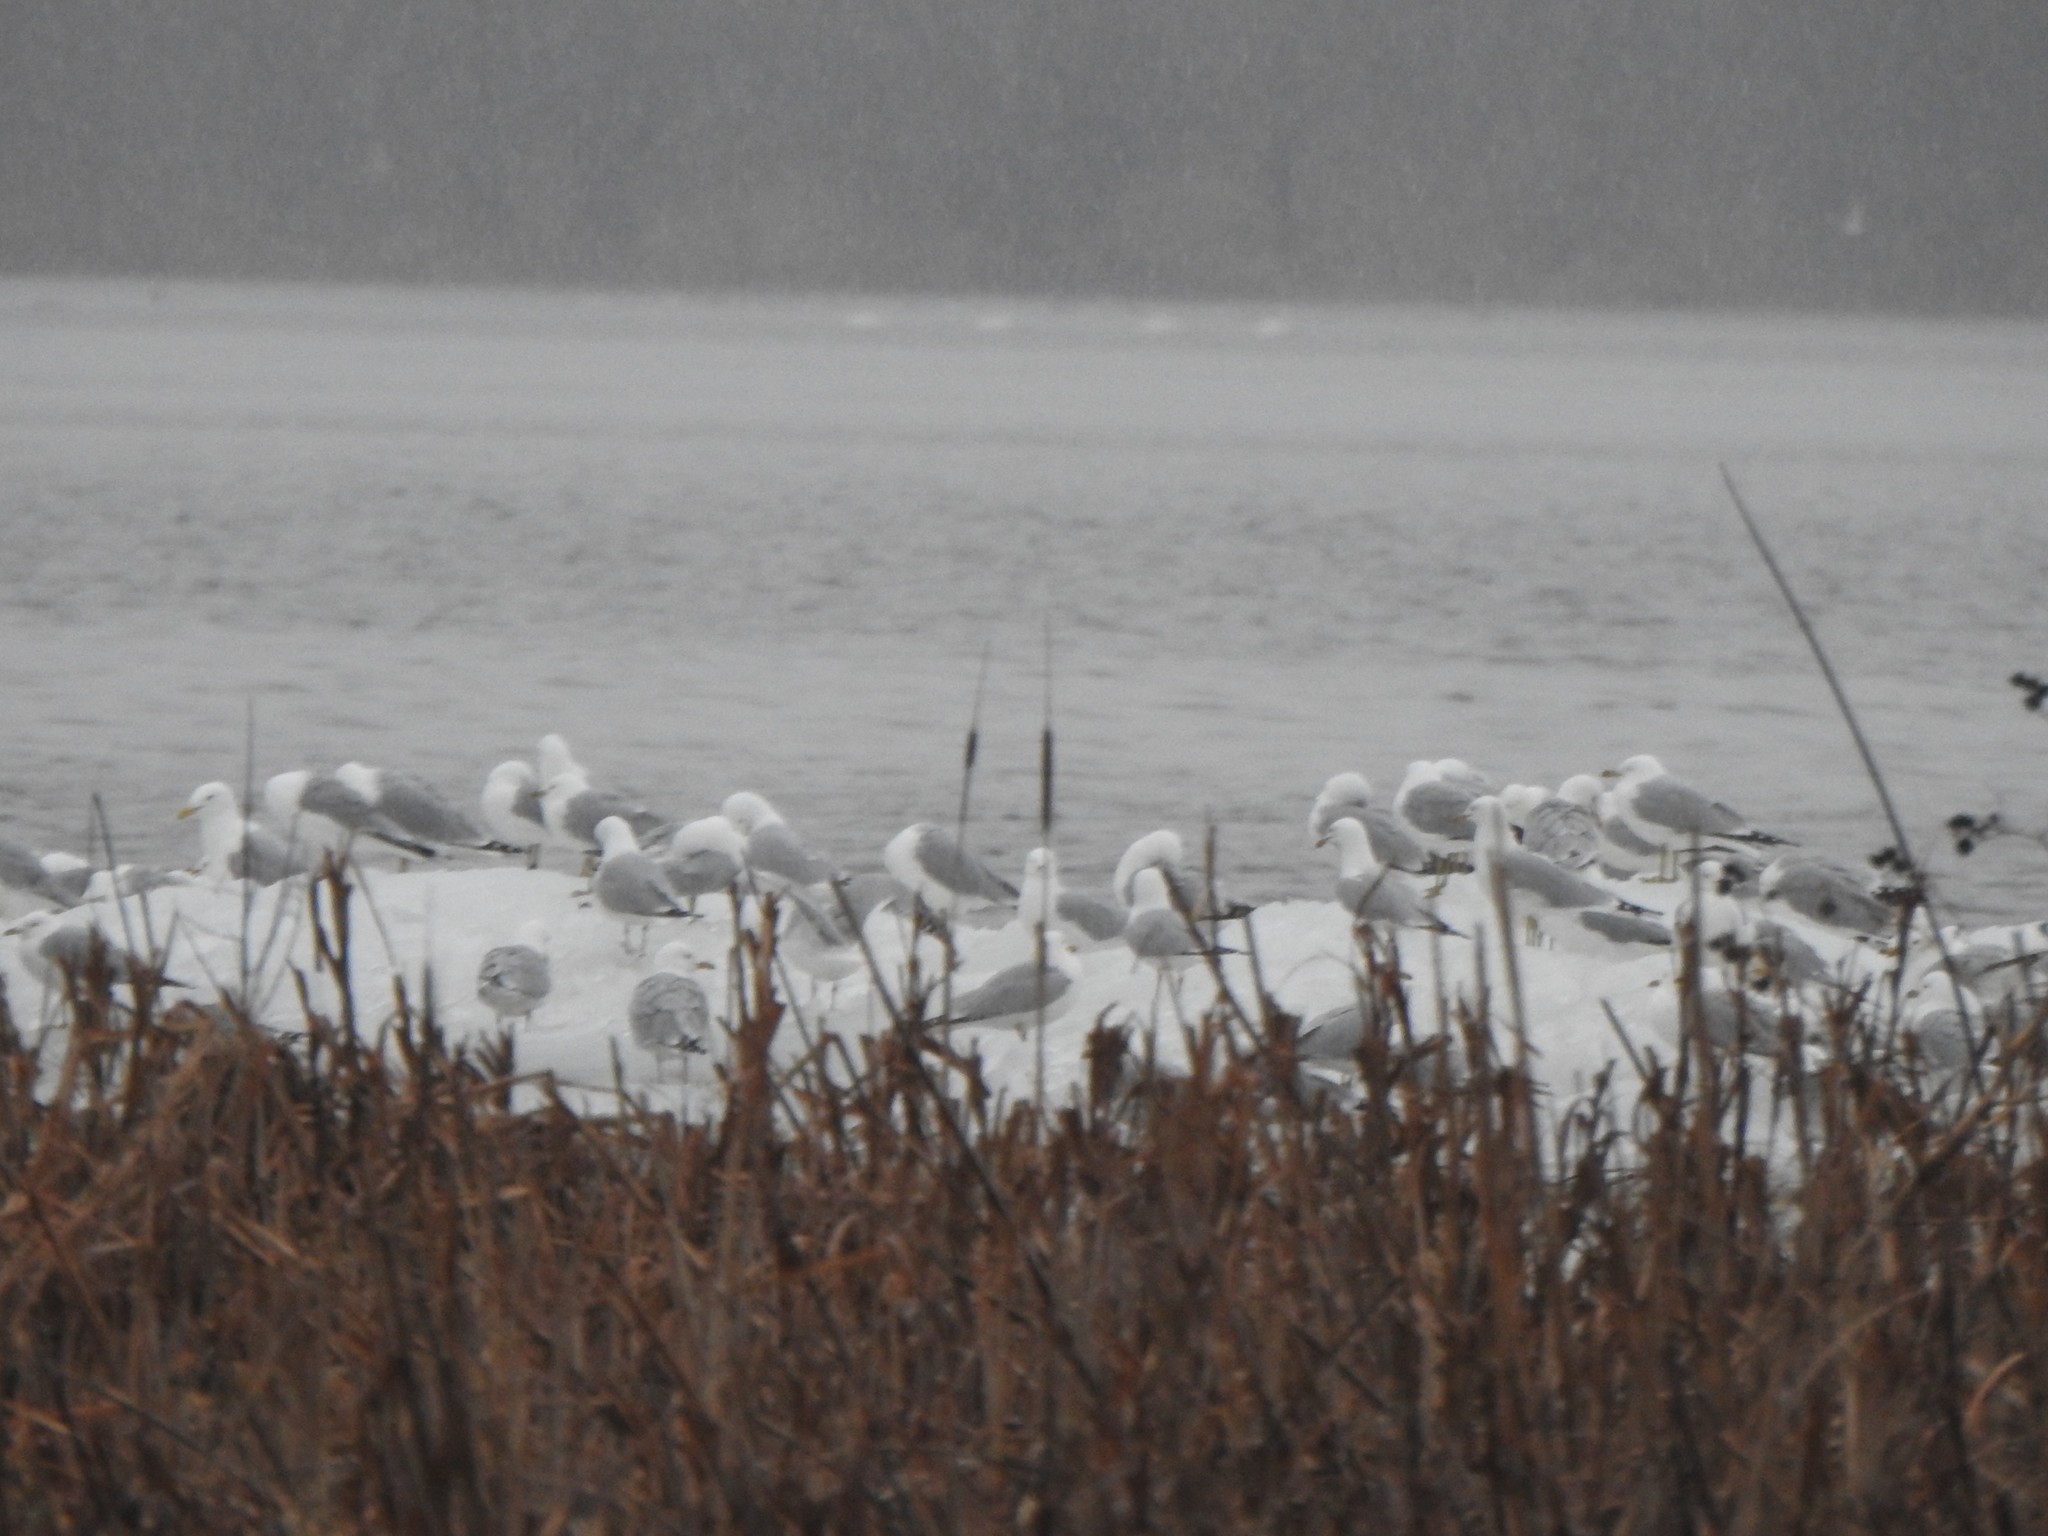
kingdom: Animalia
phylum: Chordata
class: Aves
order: Charadriiformes
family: Laridae
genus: Larus
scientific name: Larus delawarensis
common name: Ring-billed gull
